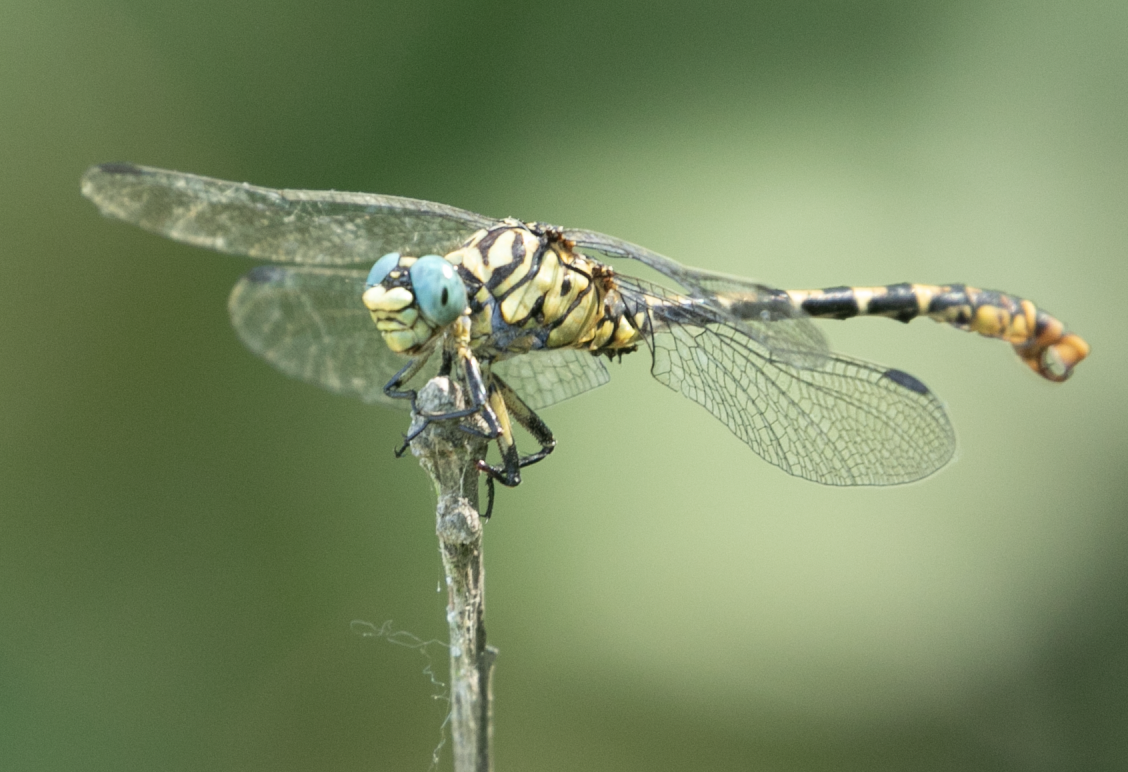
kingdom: Animalia
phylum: Arthropoda
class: Insecta
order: Odonata
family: Gomphidae
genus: Onychogomphus
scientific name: Onychogomphus forcipatus
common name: Small pincertail
